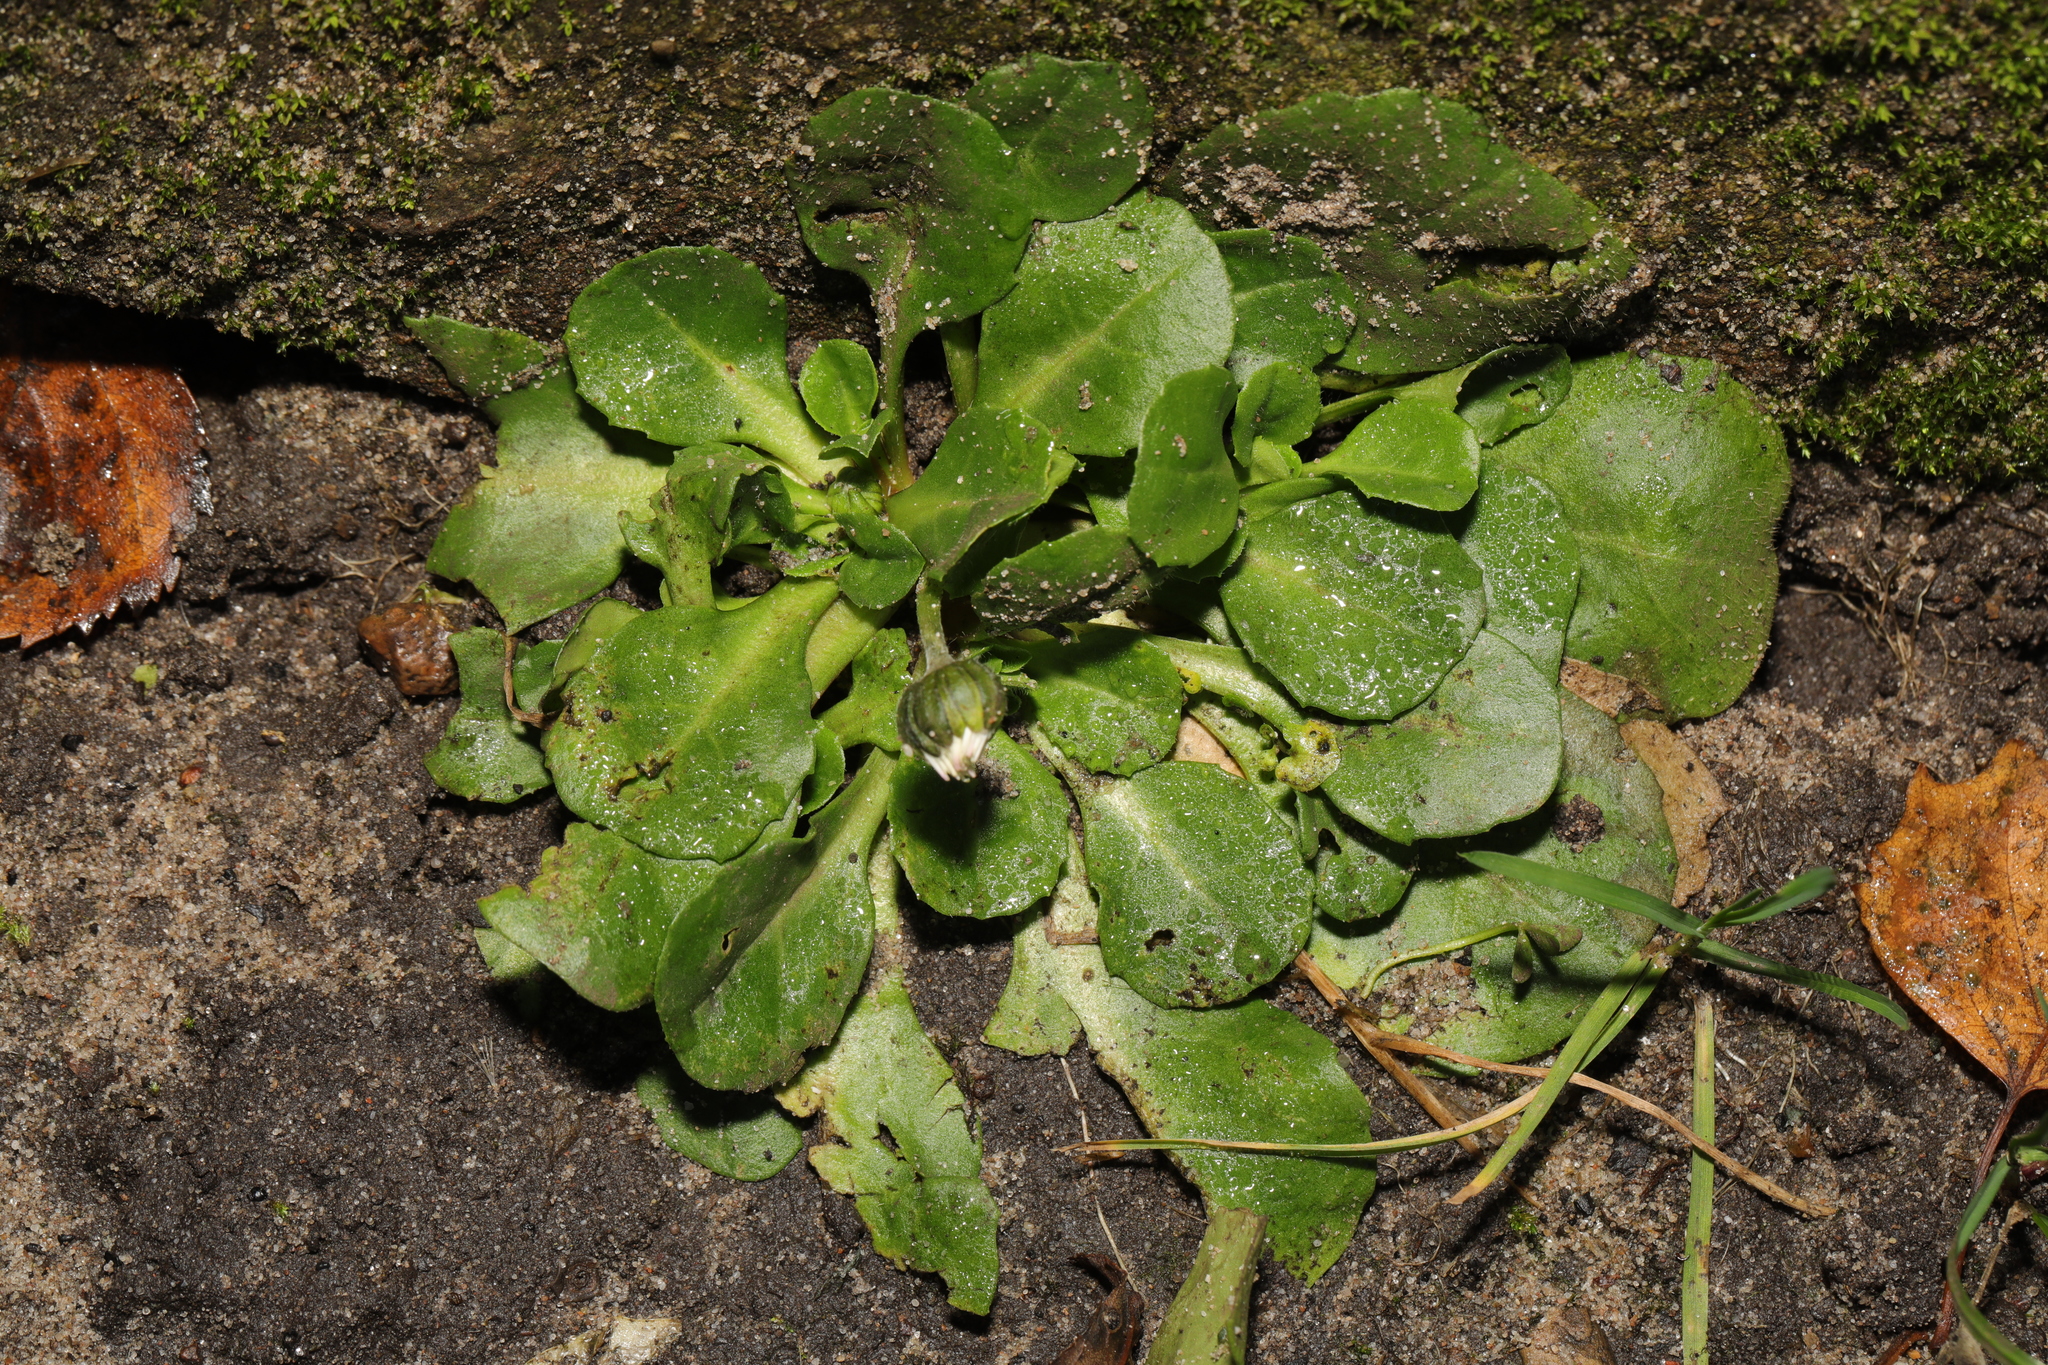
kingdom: Plantae
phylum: Tracheophyta
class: Magnoliopsida
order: Asterales
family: Asteraceae
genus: Bellis
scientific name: Bellis perennis
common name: Lawndaisy
